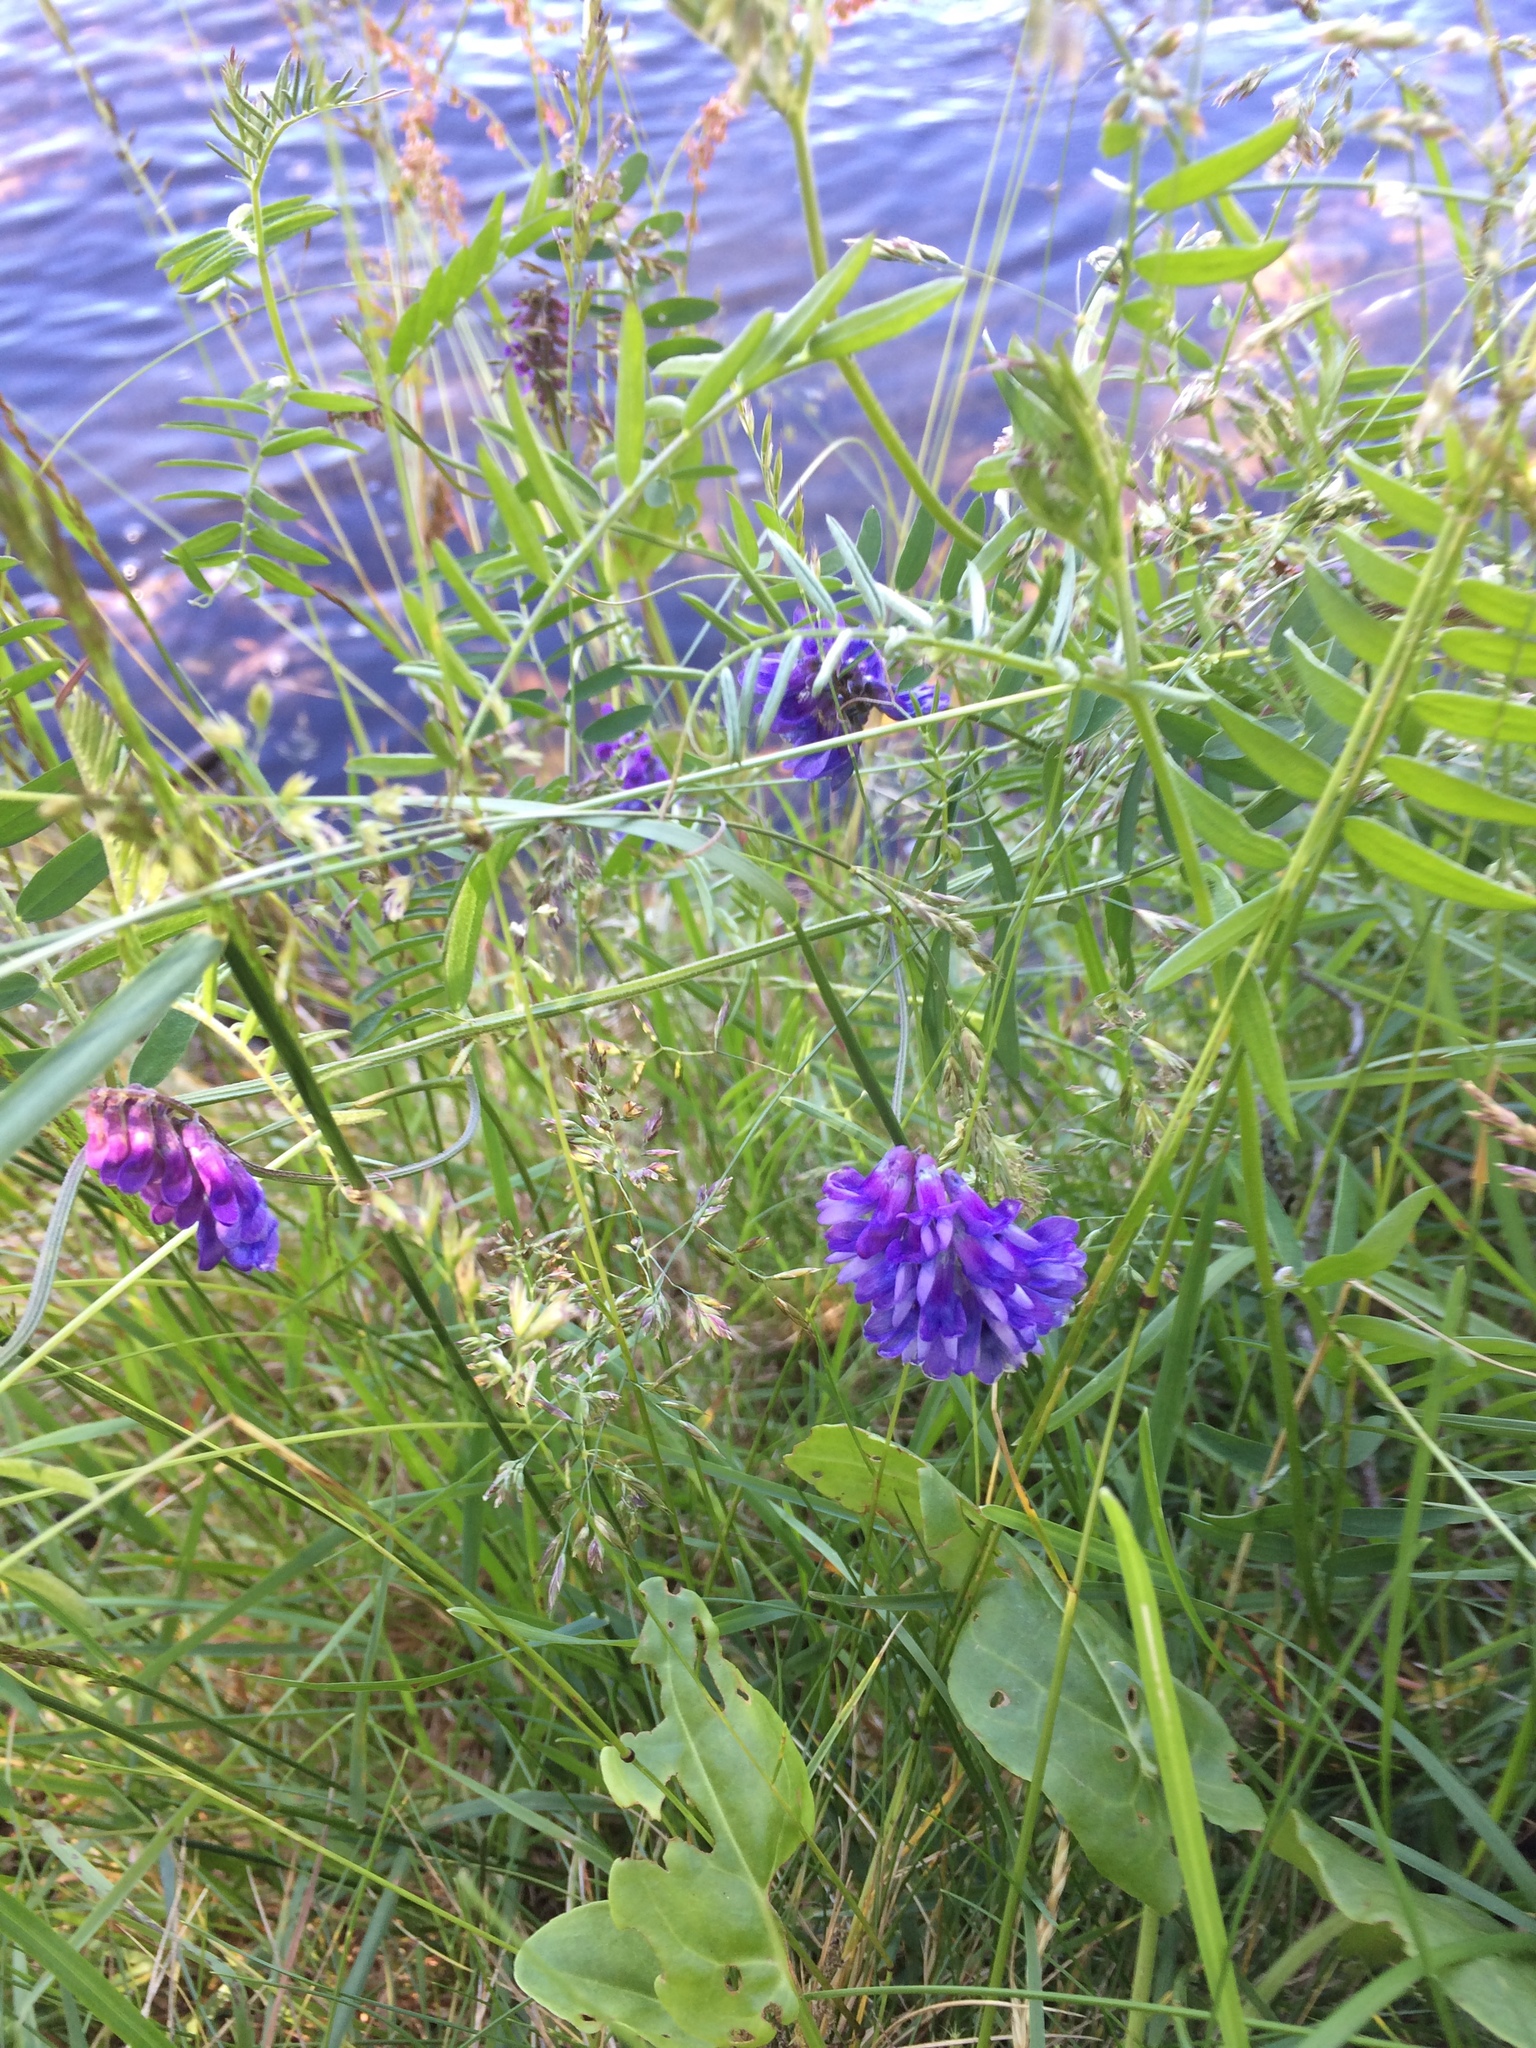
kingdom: Plantae
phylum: Tracheophyta
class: Magnoliopsida
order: Fabales
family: Fabaceae
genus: Vicia
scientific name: Vicia cracca
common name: Bird vetch
